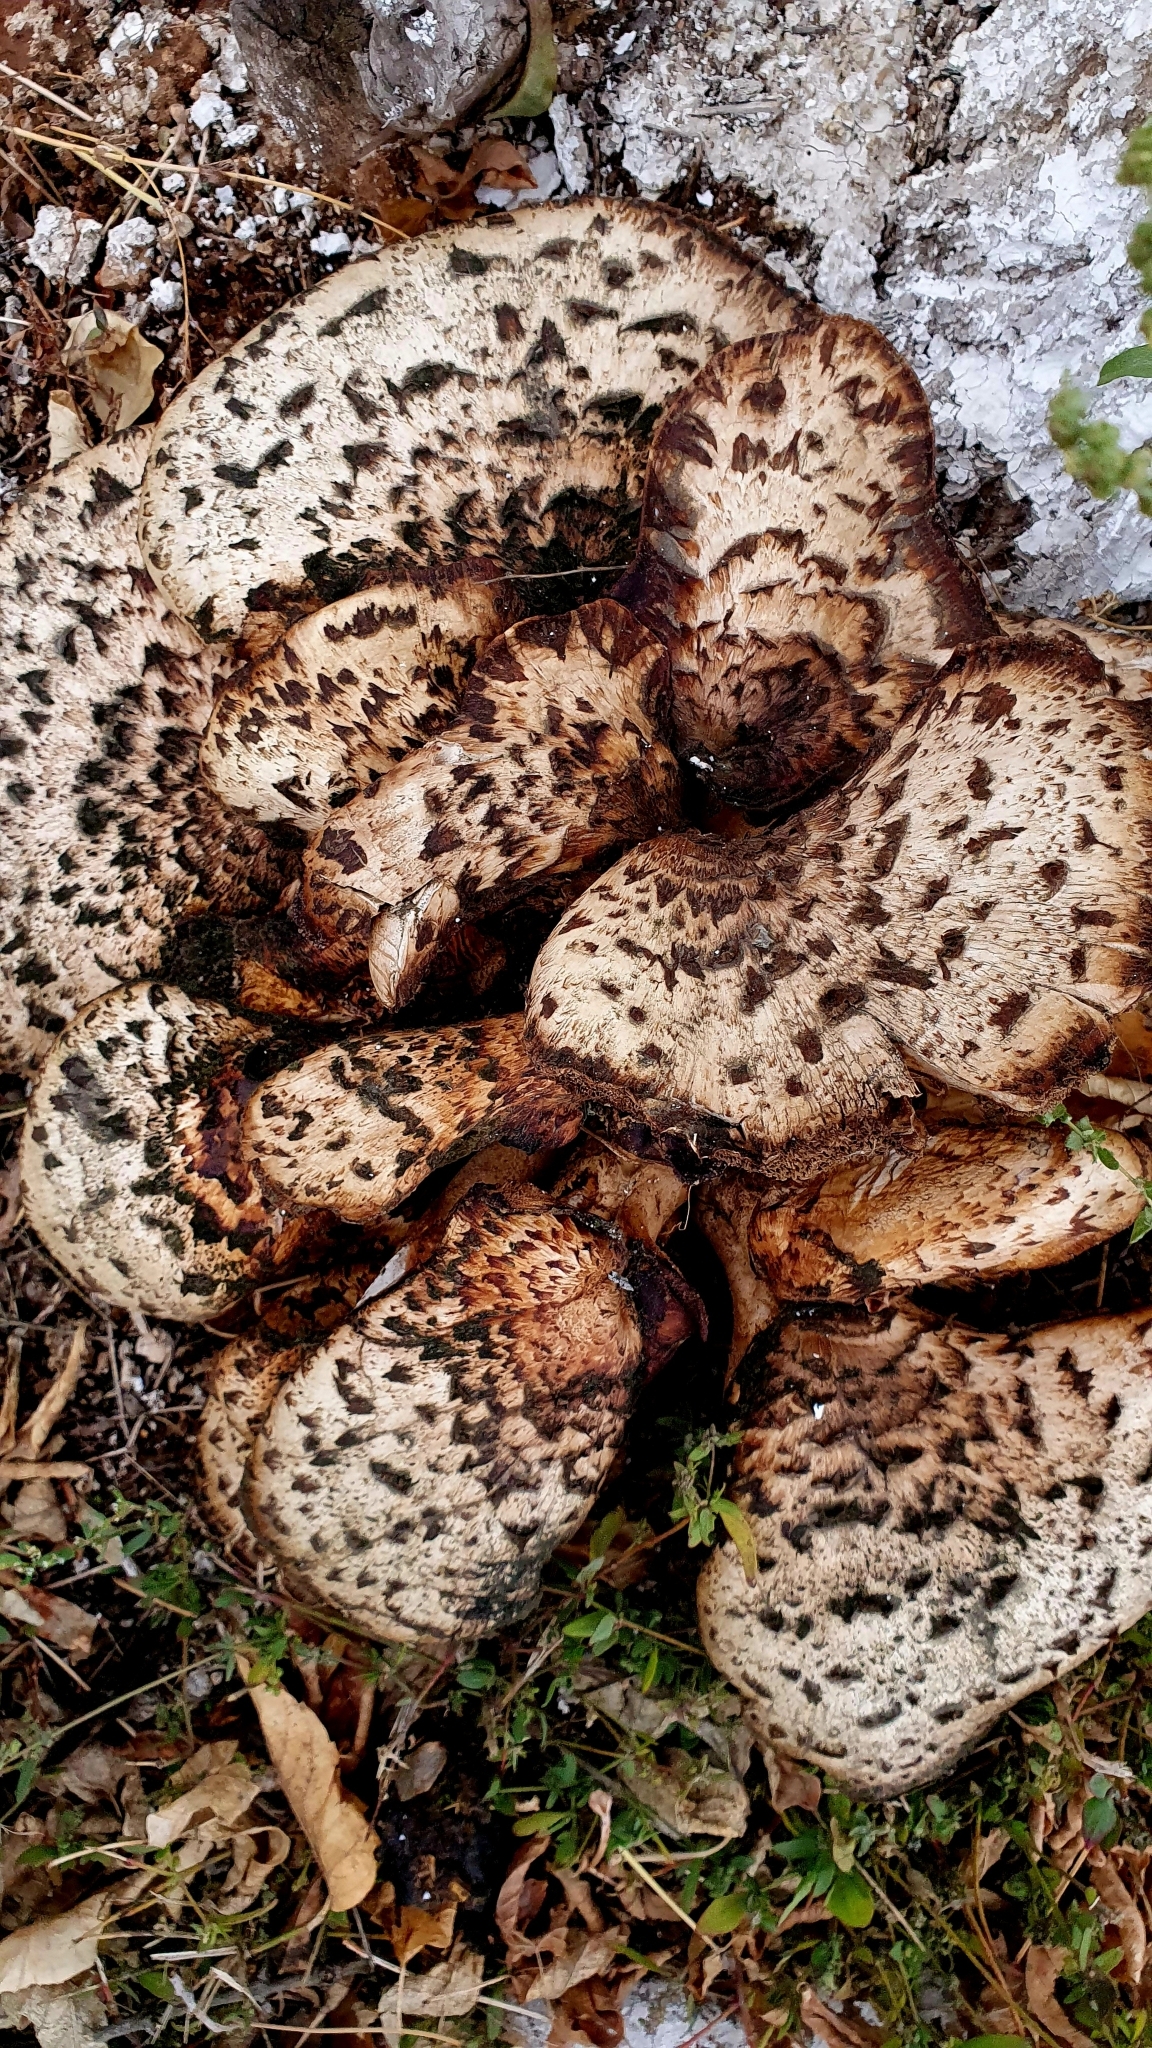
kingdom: Fungi
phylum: Basidiomycota
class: Agaricomycetes
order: Polyporales
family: Polyporaceae
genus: Cerioporus
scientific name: Cerioporus squamosus
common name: Dryad's saddle
